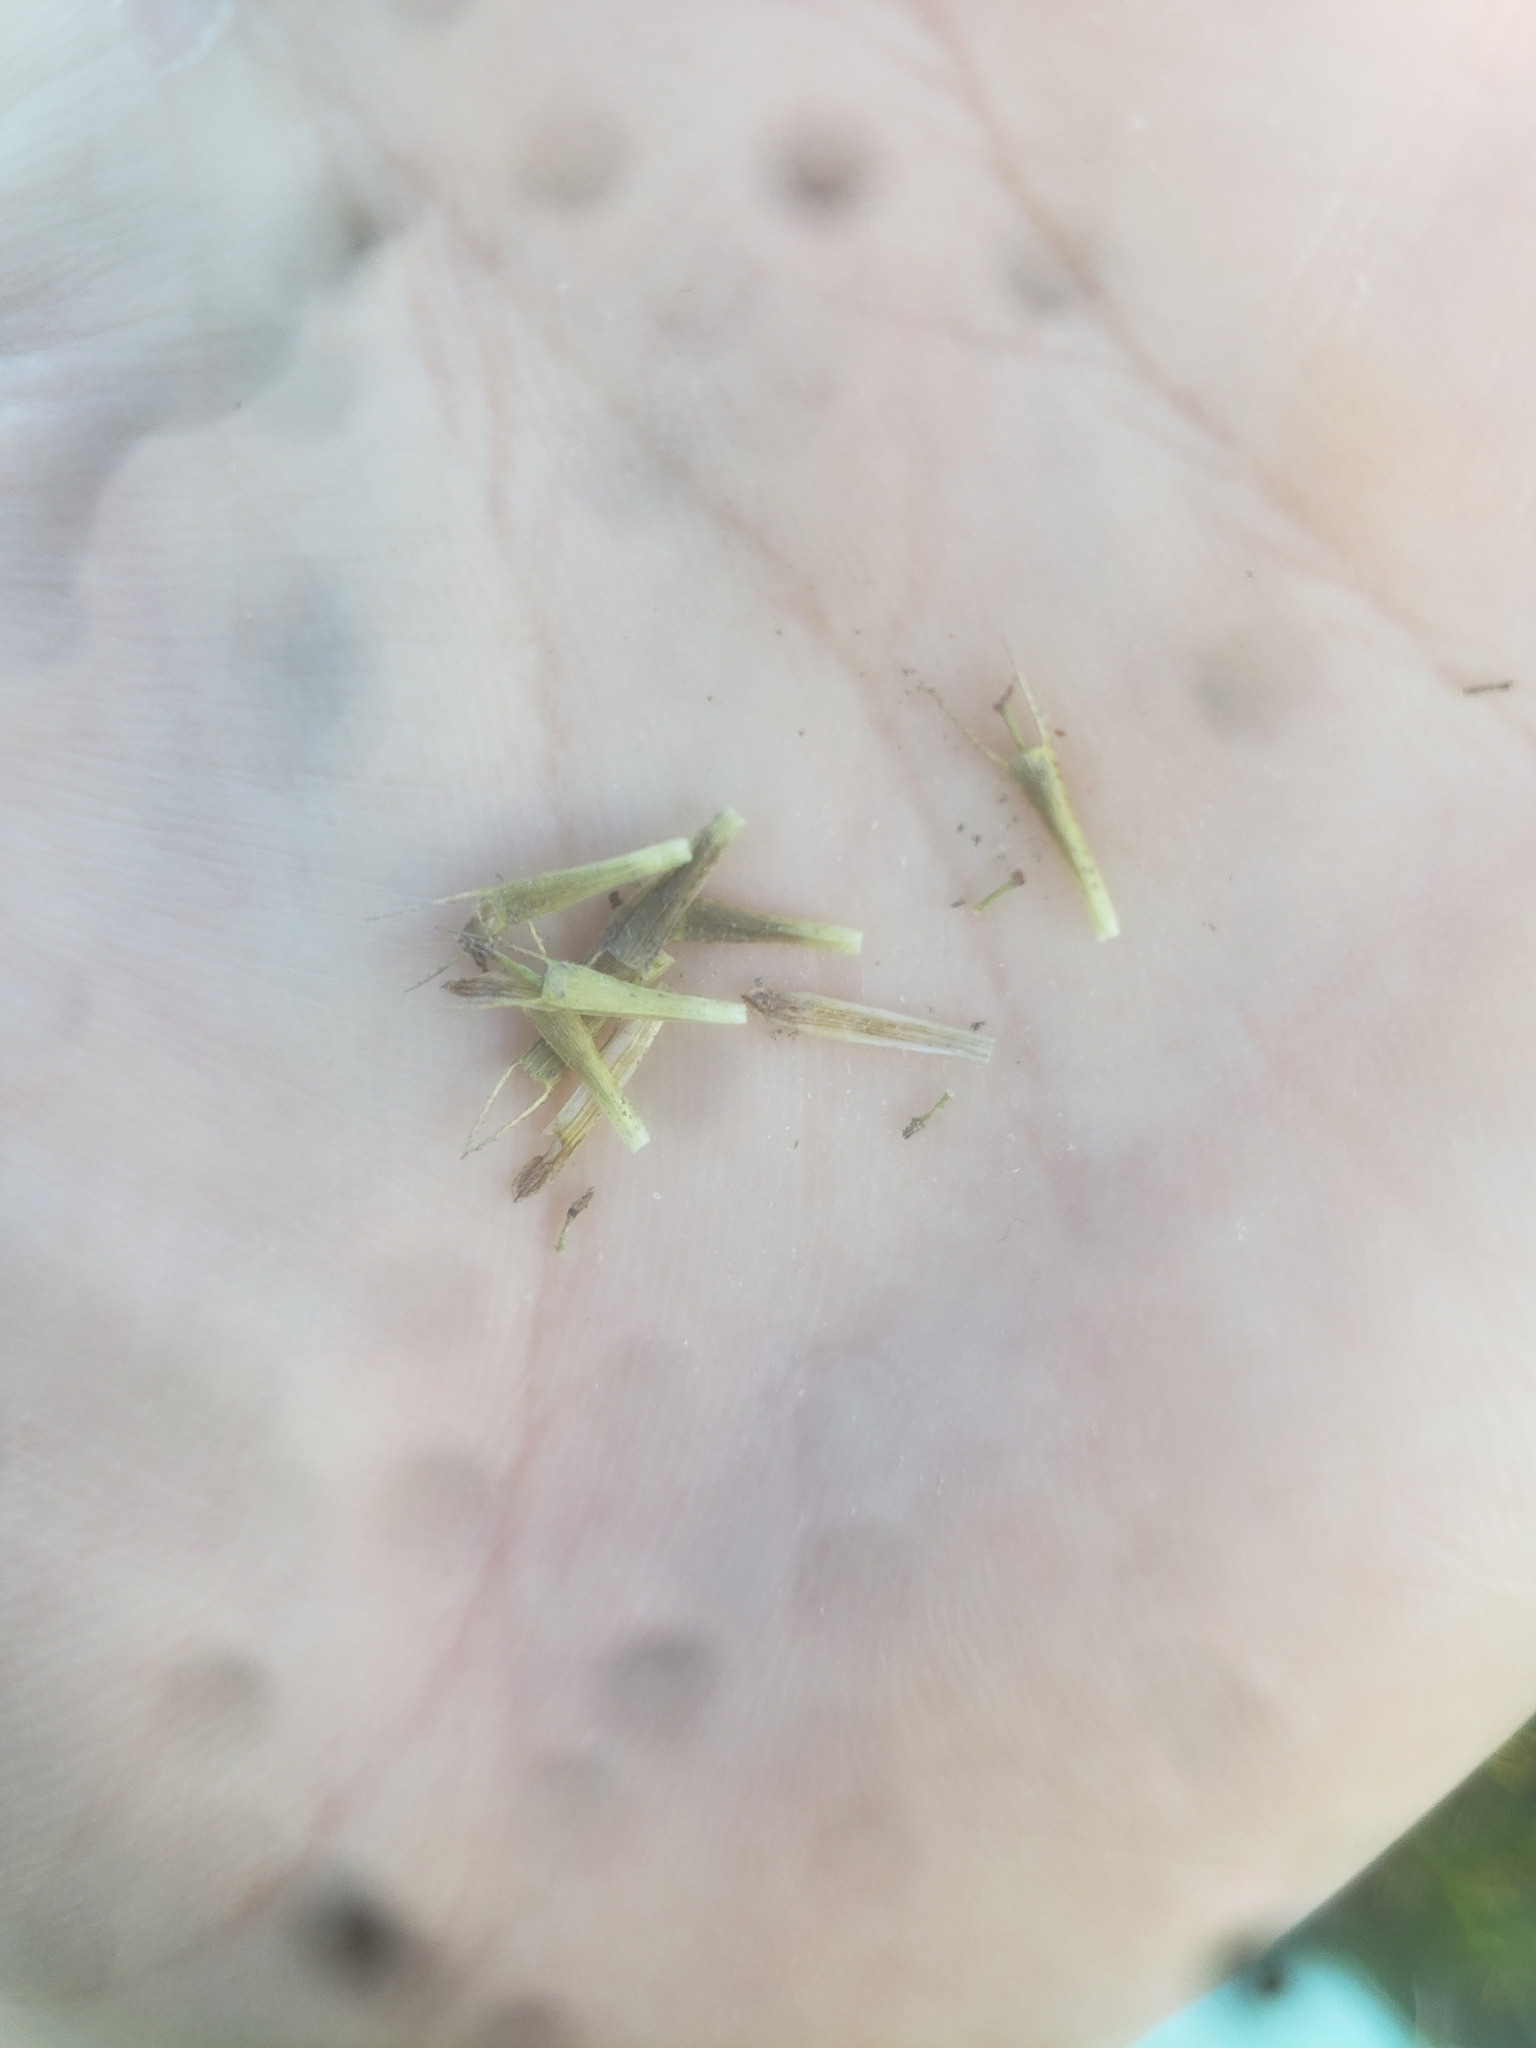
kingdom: Plantae
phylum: Tracheophyta
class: Magnoliopsida
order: Asterales
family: Asteraceae
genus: Bidens
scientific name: Bidens hyperborea
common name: Coastal beggarticks
